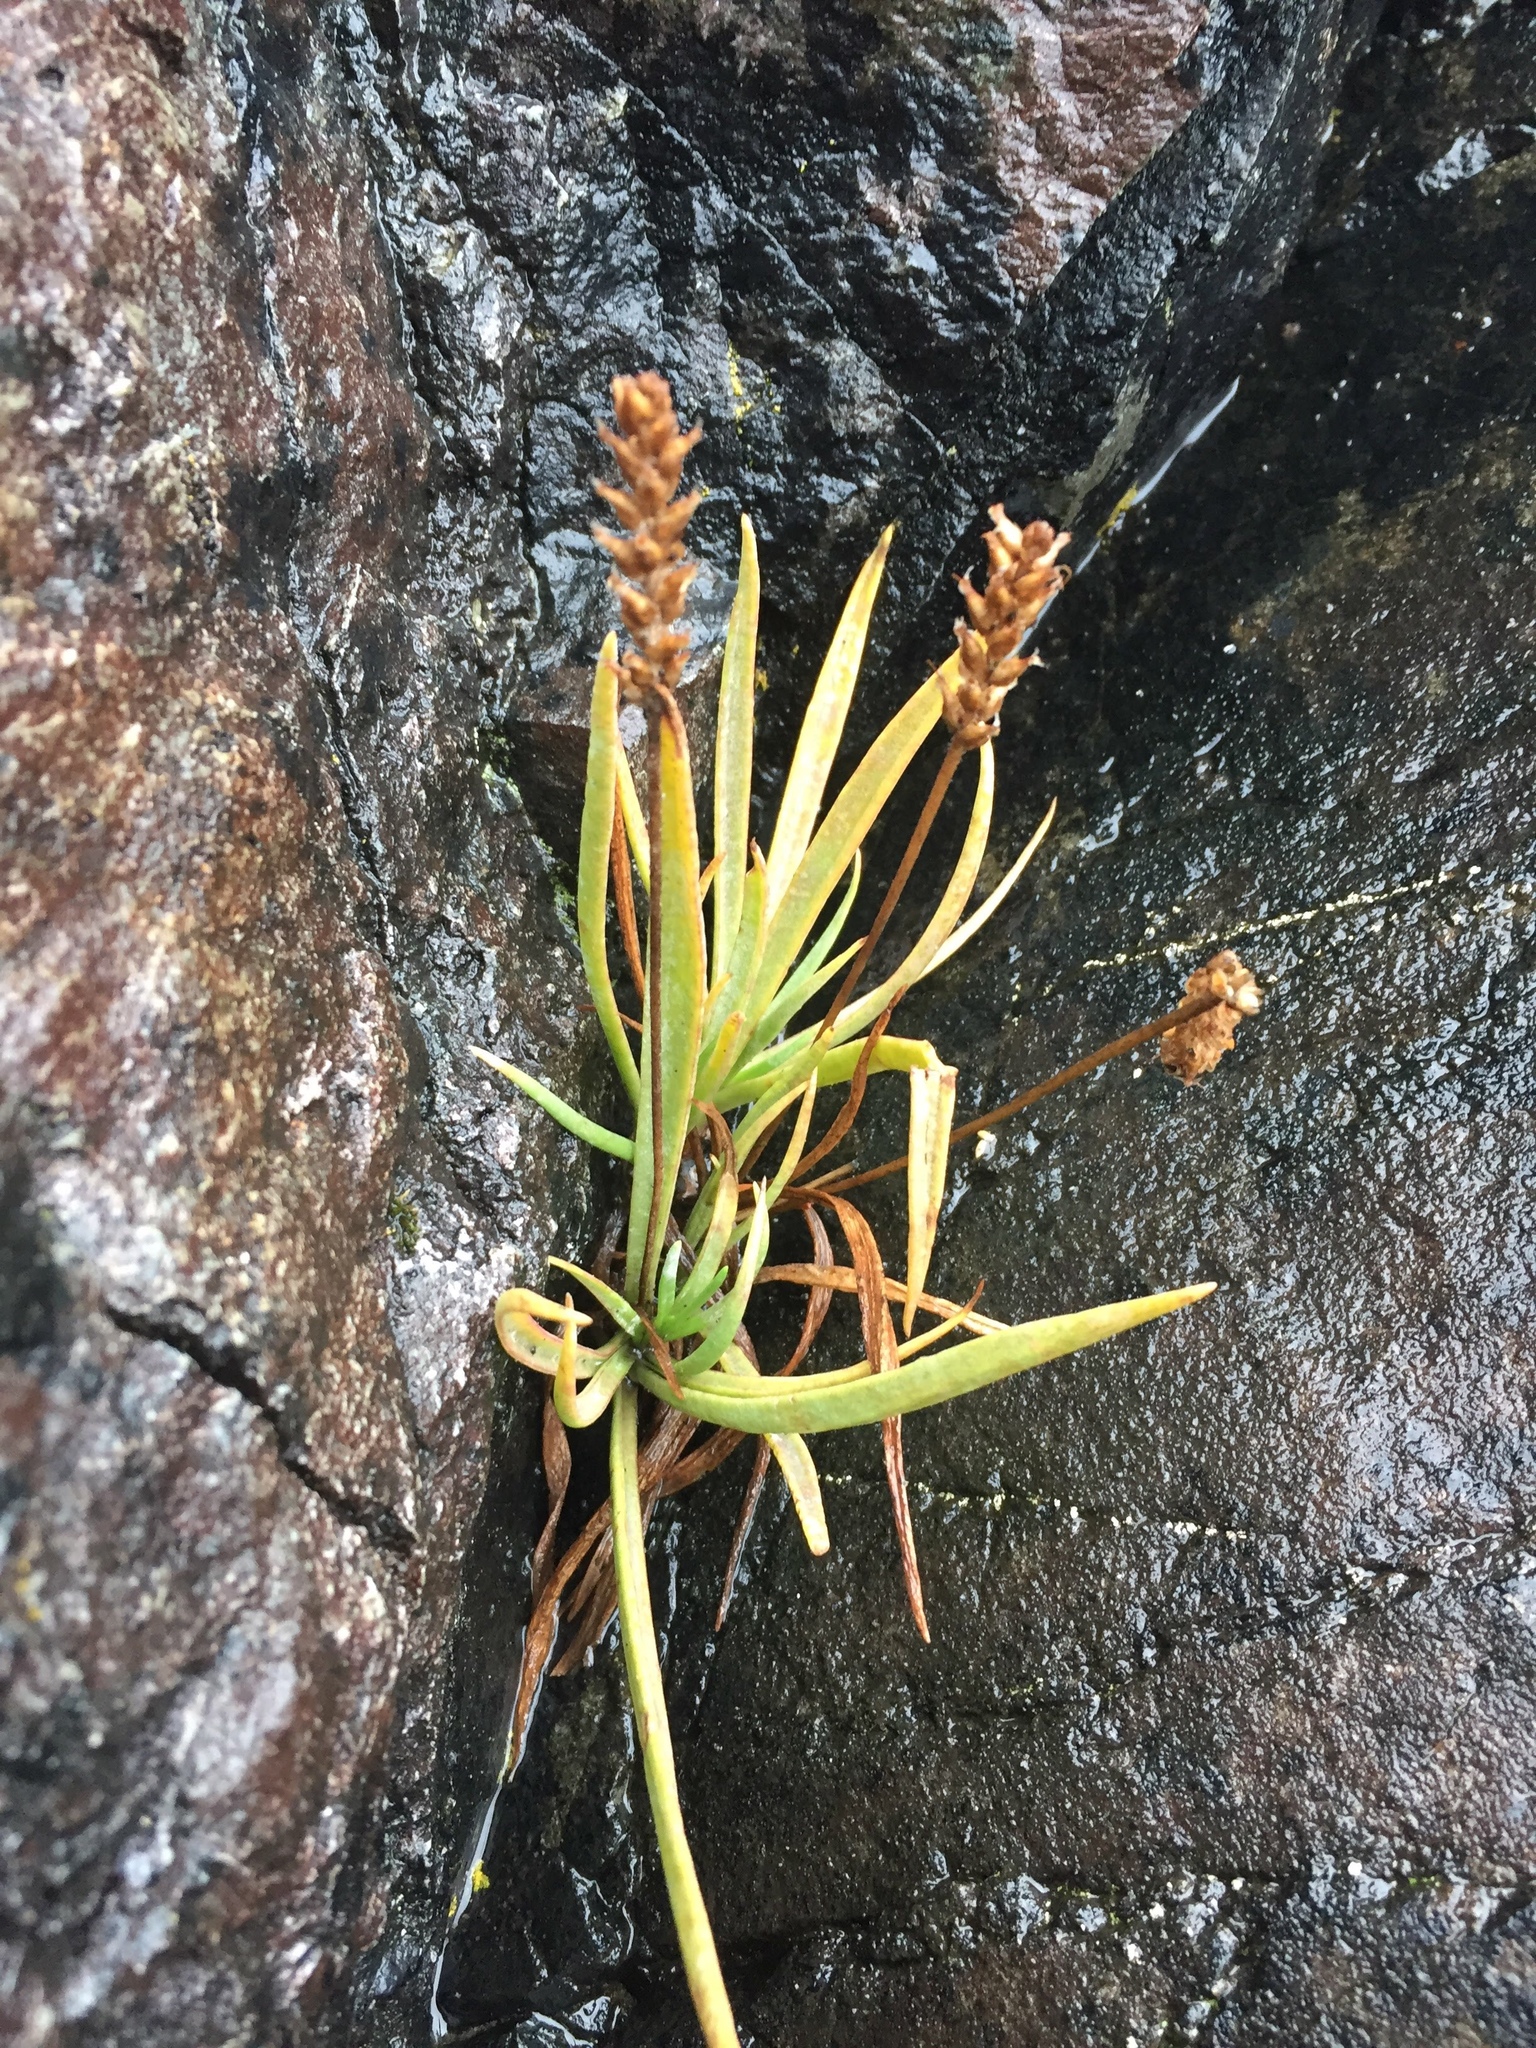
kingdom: Plantae
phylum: Tracheophyta
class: Magnoliopsida
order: Lamiales
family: Plantaginaceae
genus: Plantago
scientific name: Plantago maritima
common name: Sea plantain
